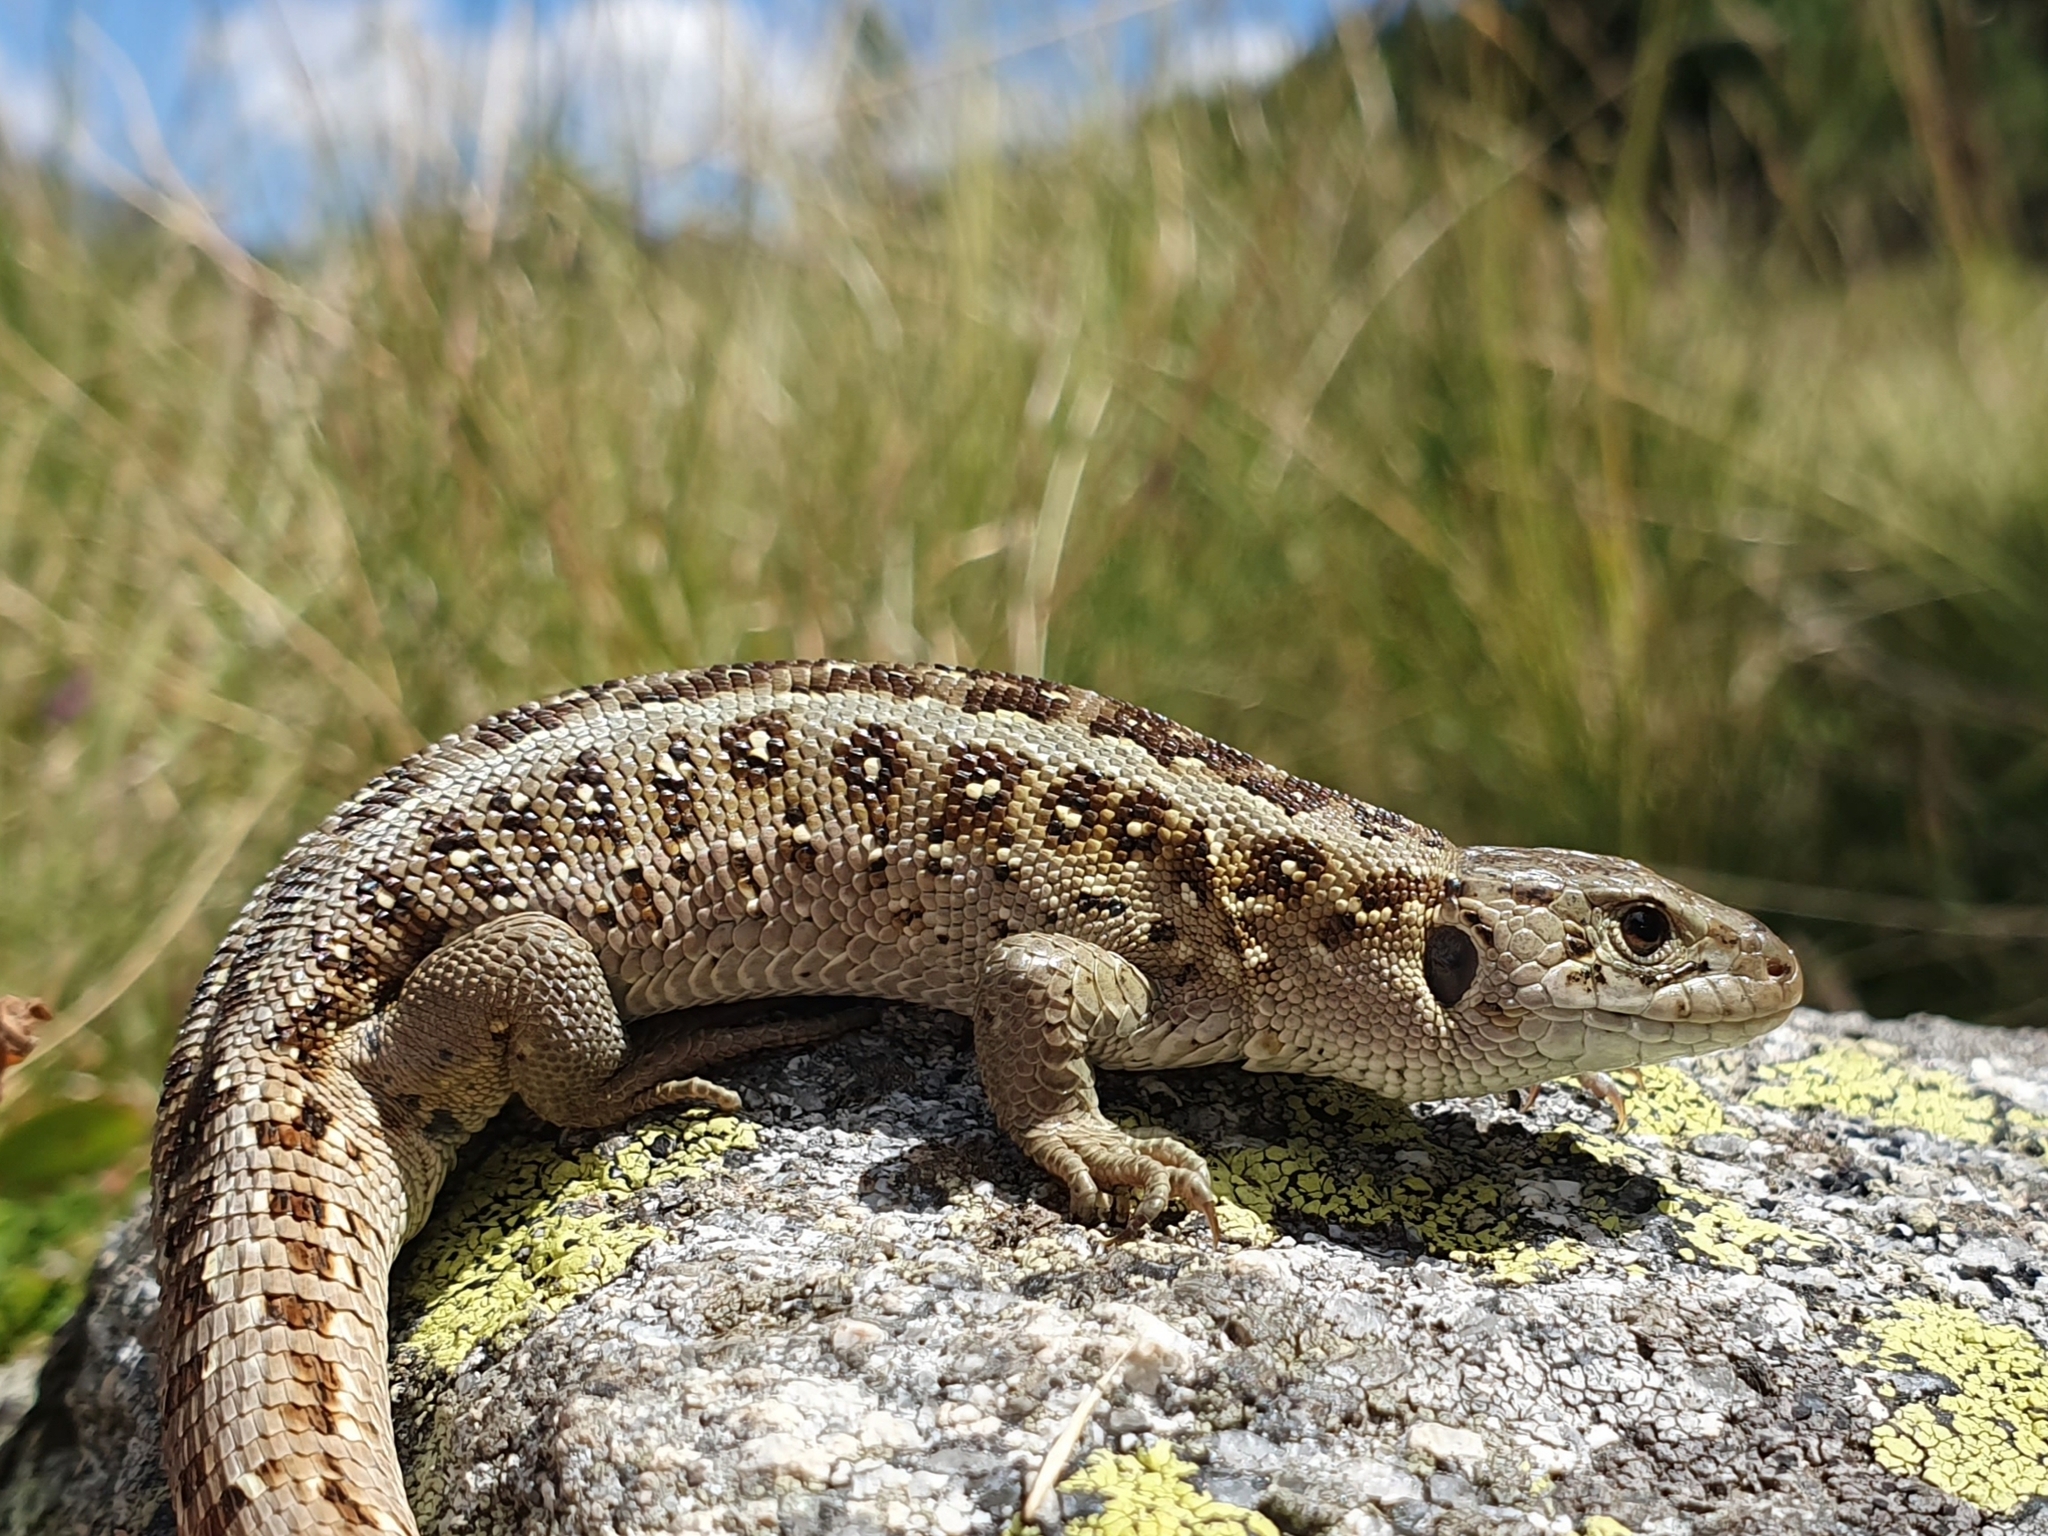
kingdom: Animalia
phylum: Chordata
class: Squamata
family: Lacertidae
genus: Lacerta
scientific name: Lacerta agilis
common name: Sand lizard
